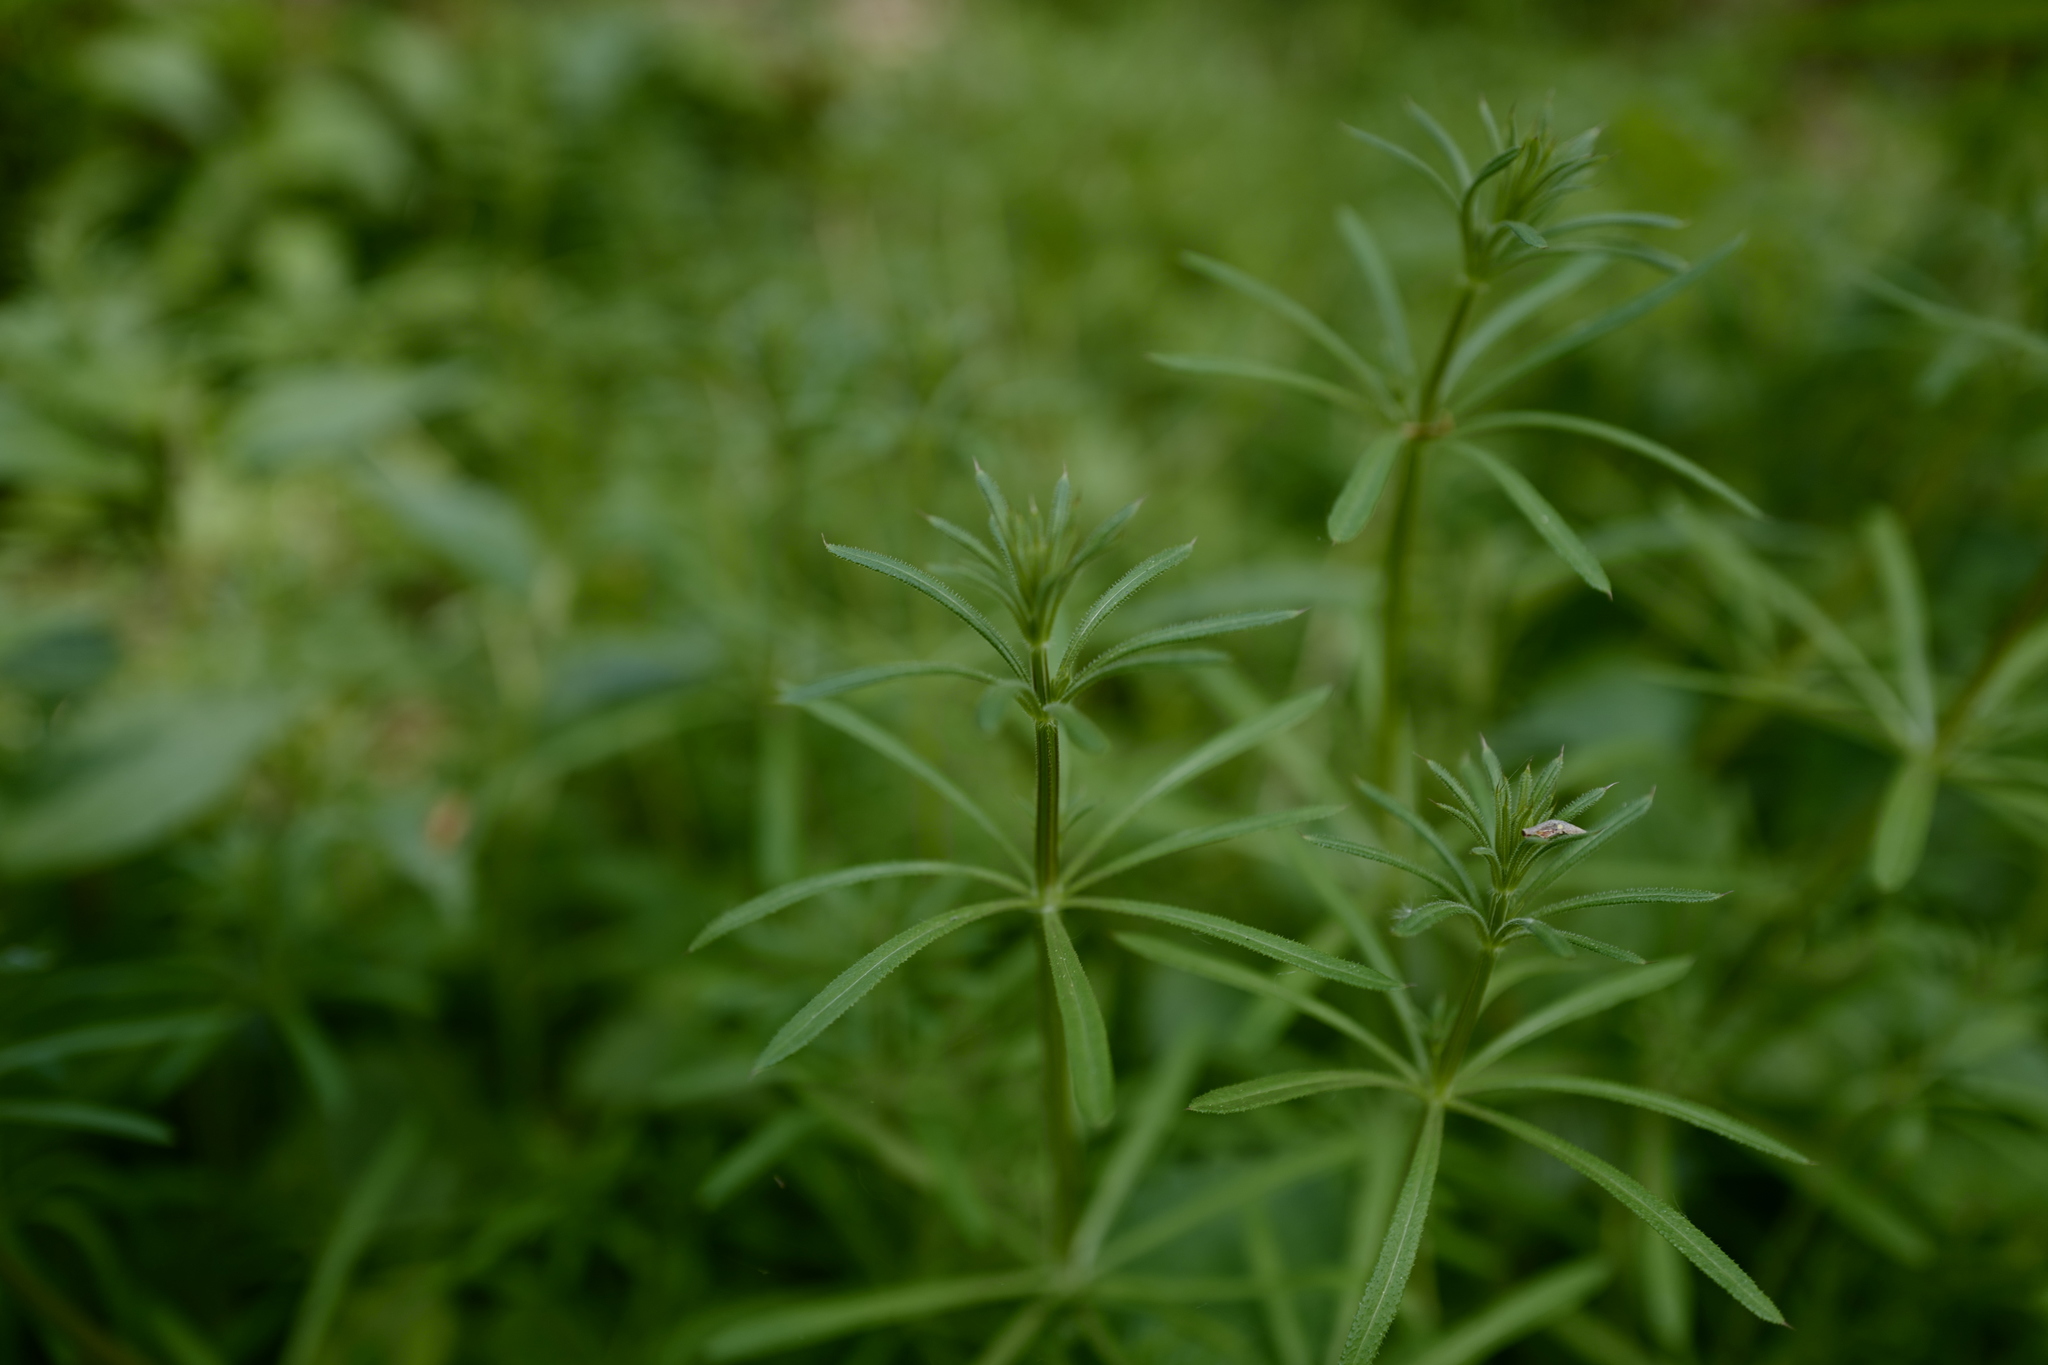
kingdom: Plantae
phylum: Tracheophyta
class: Magnoliopsida
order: Gentianales
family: Rubiaceae
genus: Galium
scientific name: Galium aparine
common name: Cleavers
